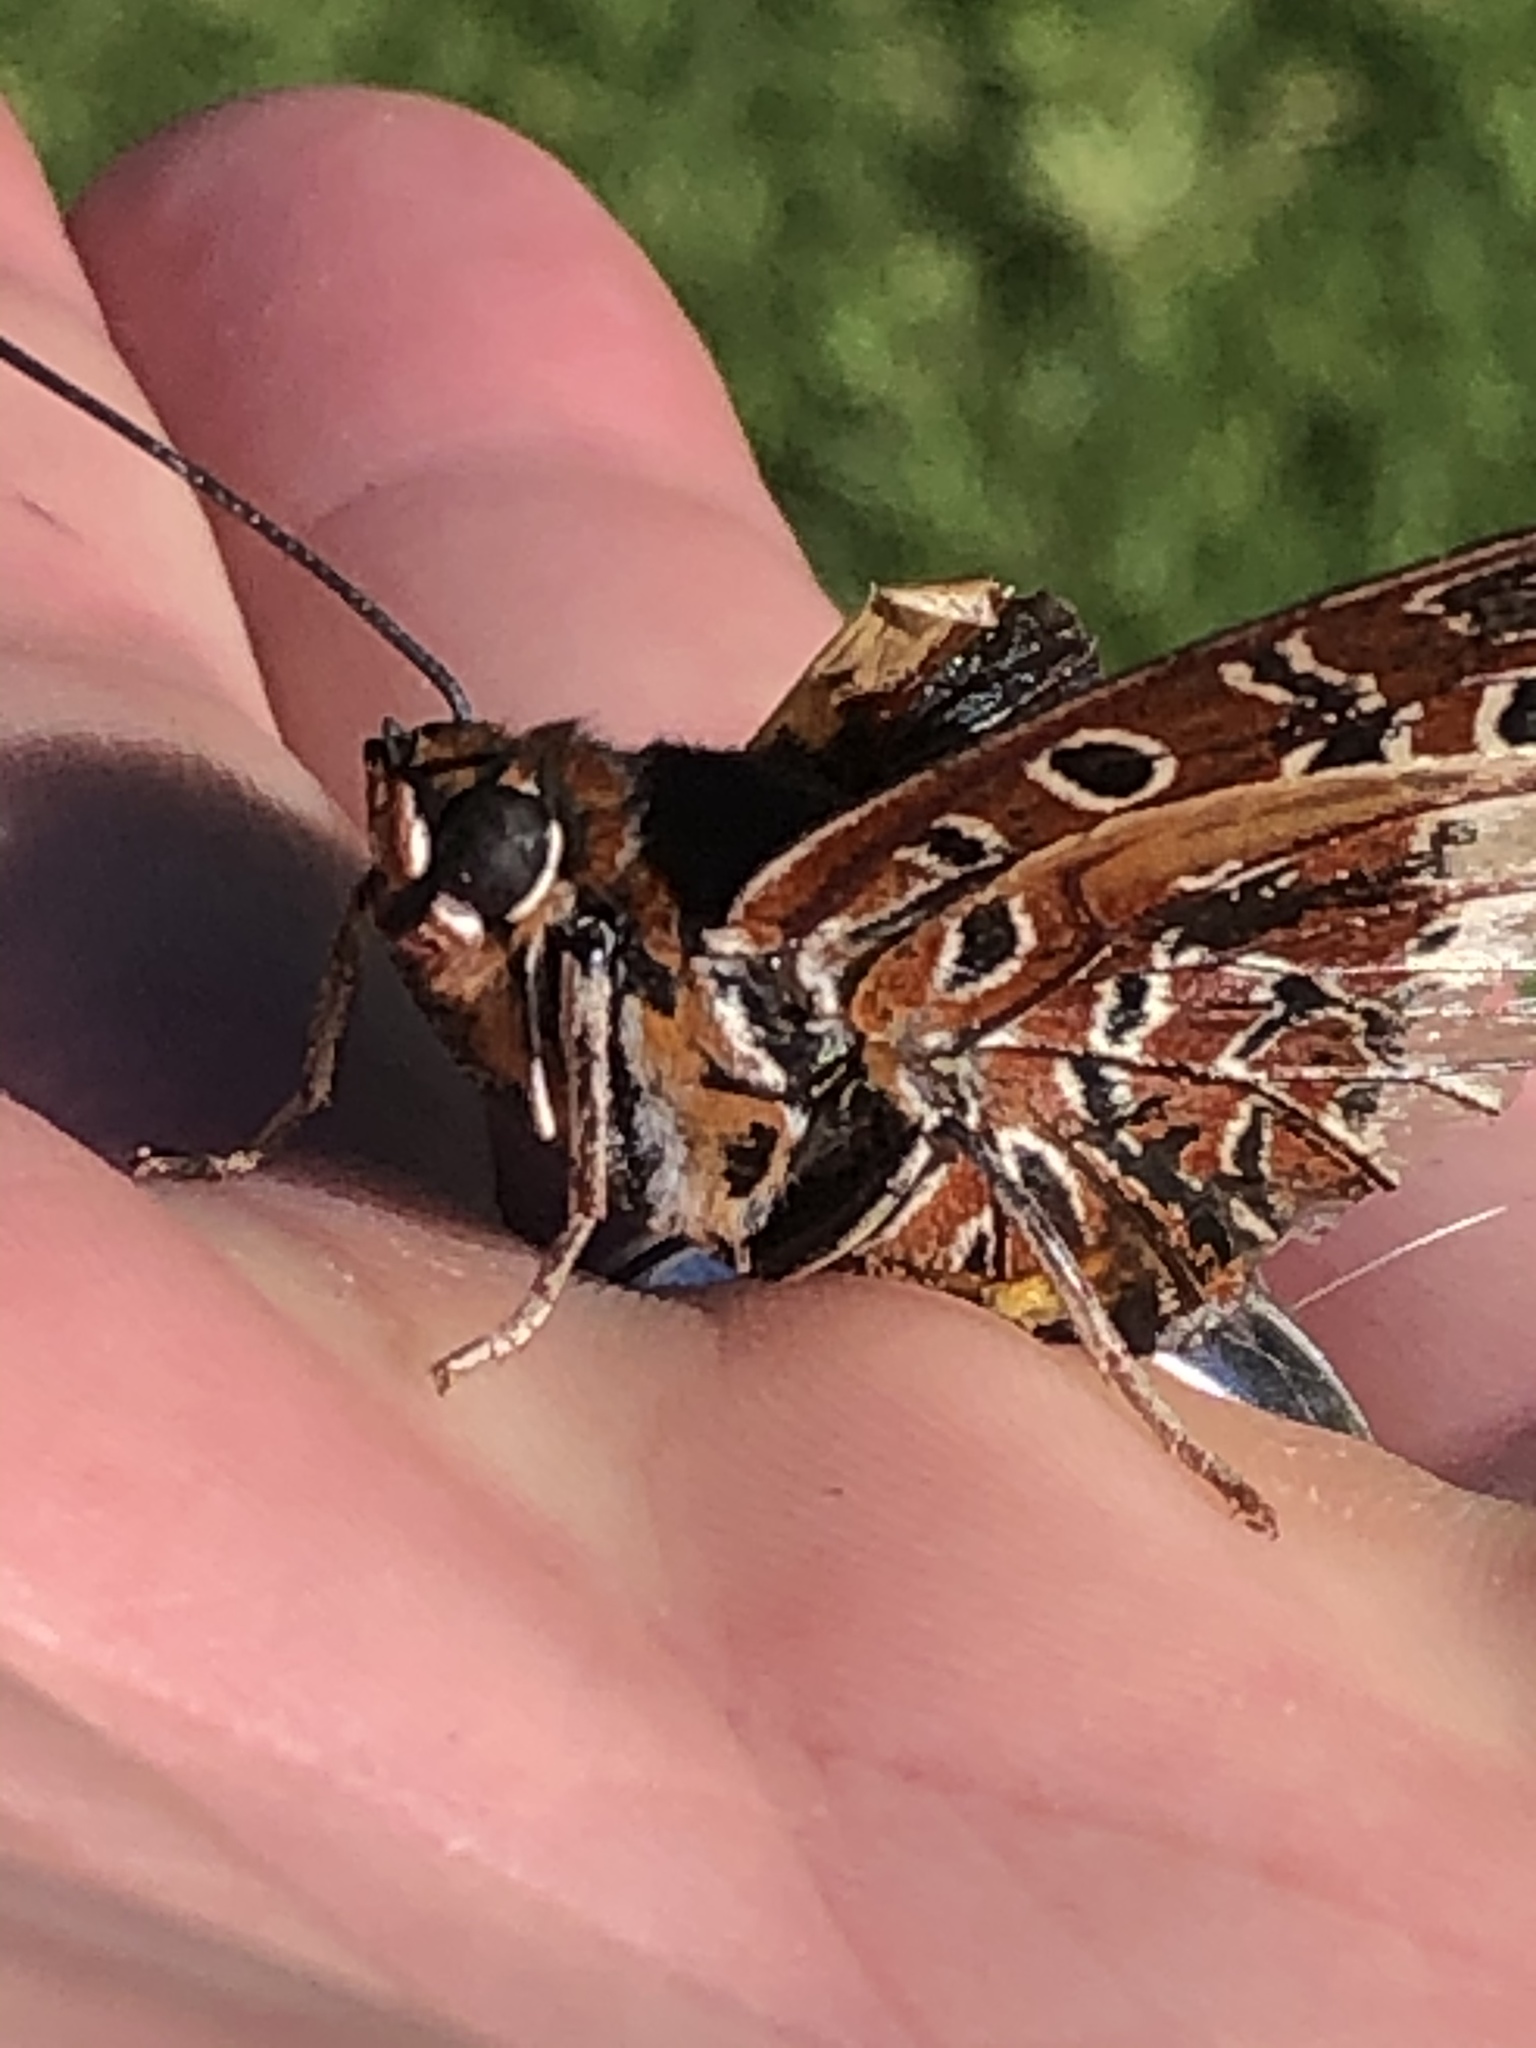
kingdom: Animalia
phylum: Arthropoda
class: Insecta
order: Lepidoptera
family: Nymphalidae
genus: Charaxes
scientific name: Charaxes brutus
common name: White-barred charaxes
